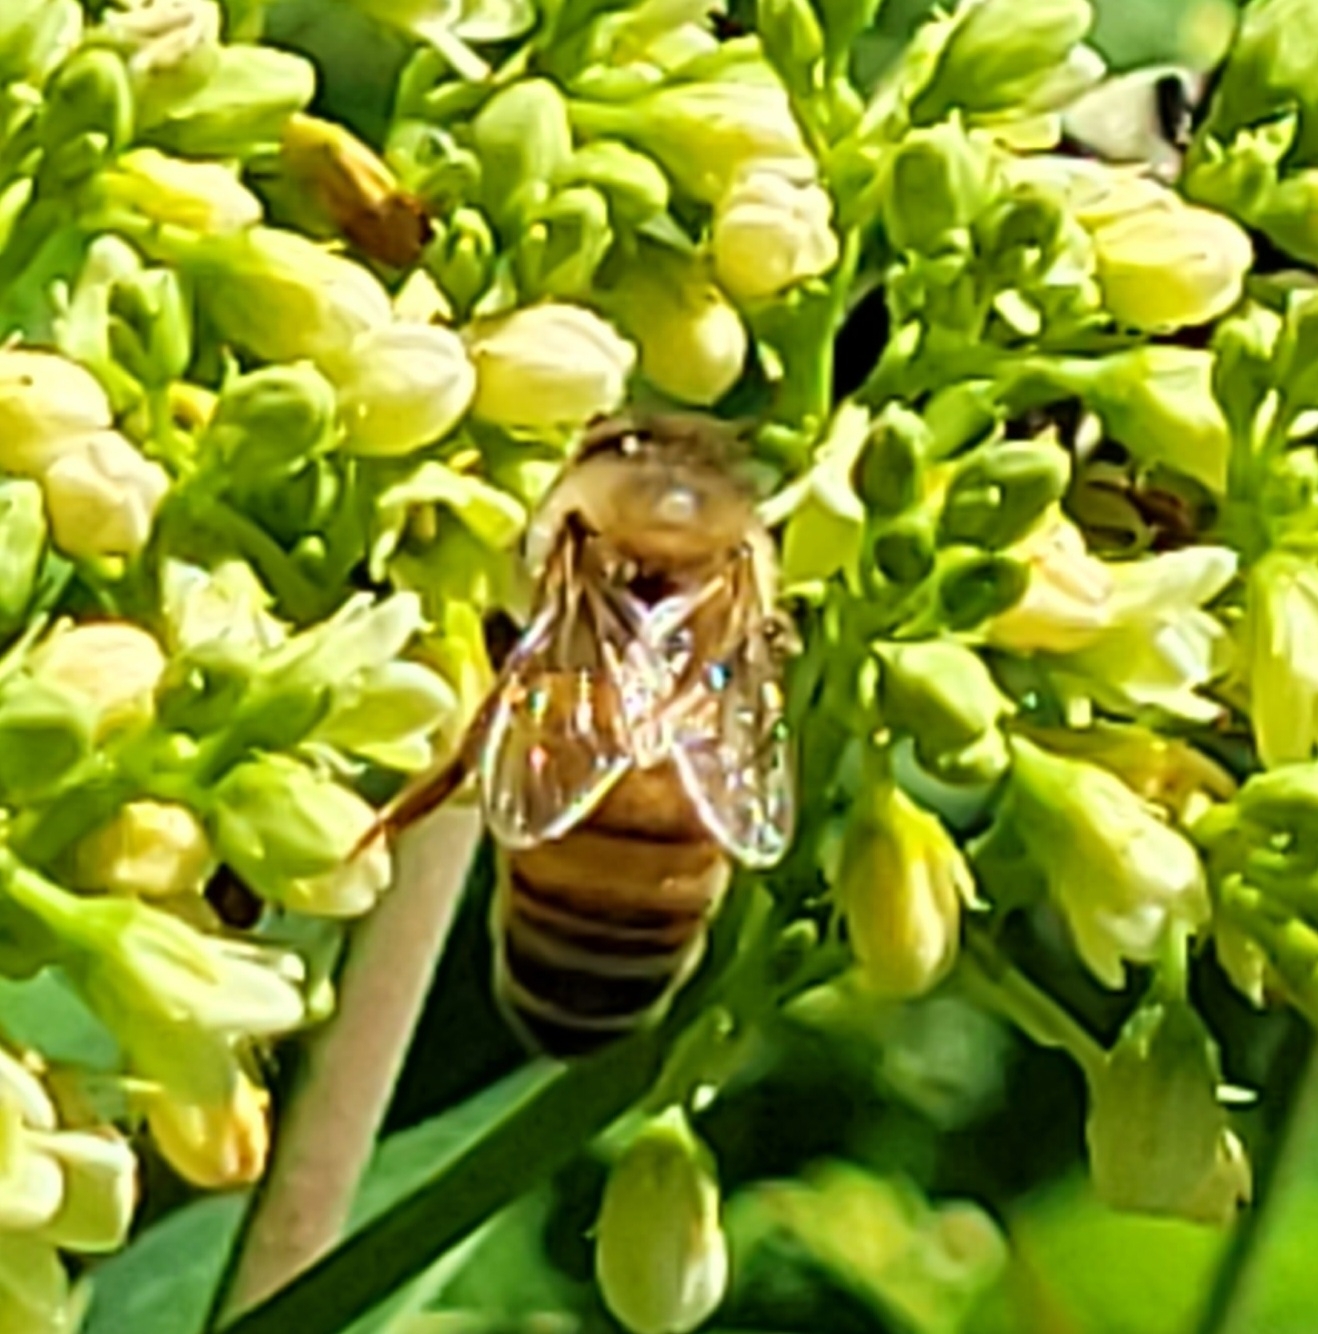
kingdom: Animalia
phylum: Arthropoda
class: Insecta
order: Hymenoptera
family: Apidae
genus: Apis
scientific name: Apis mellifera
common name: Honey bee
